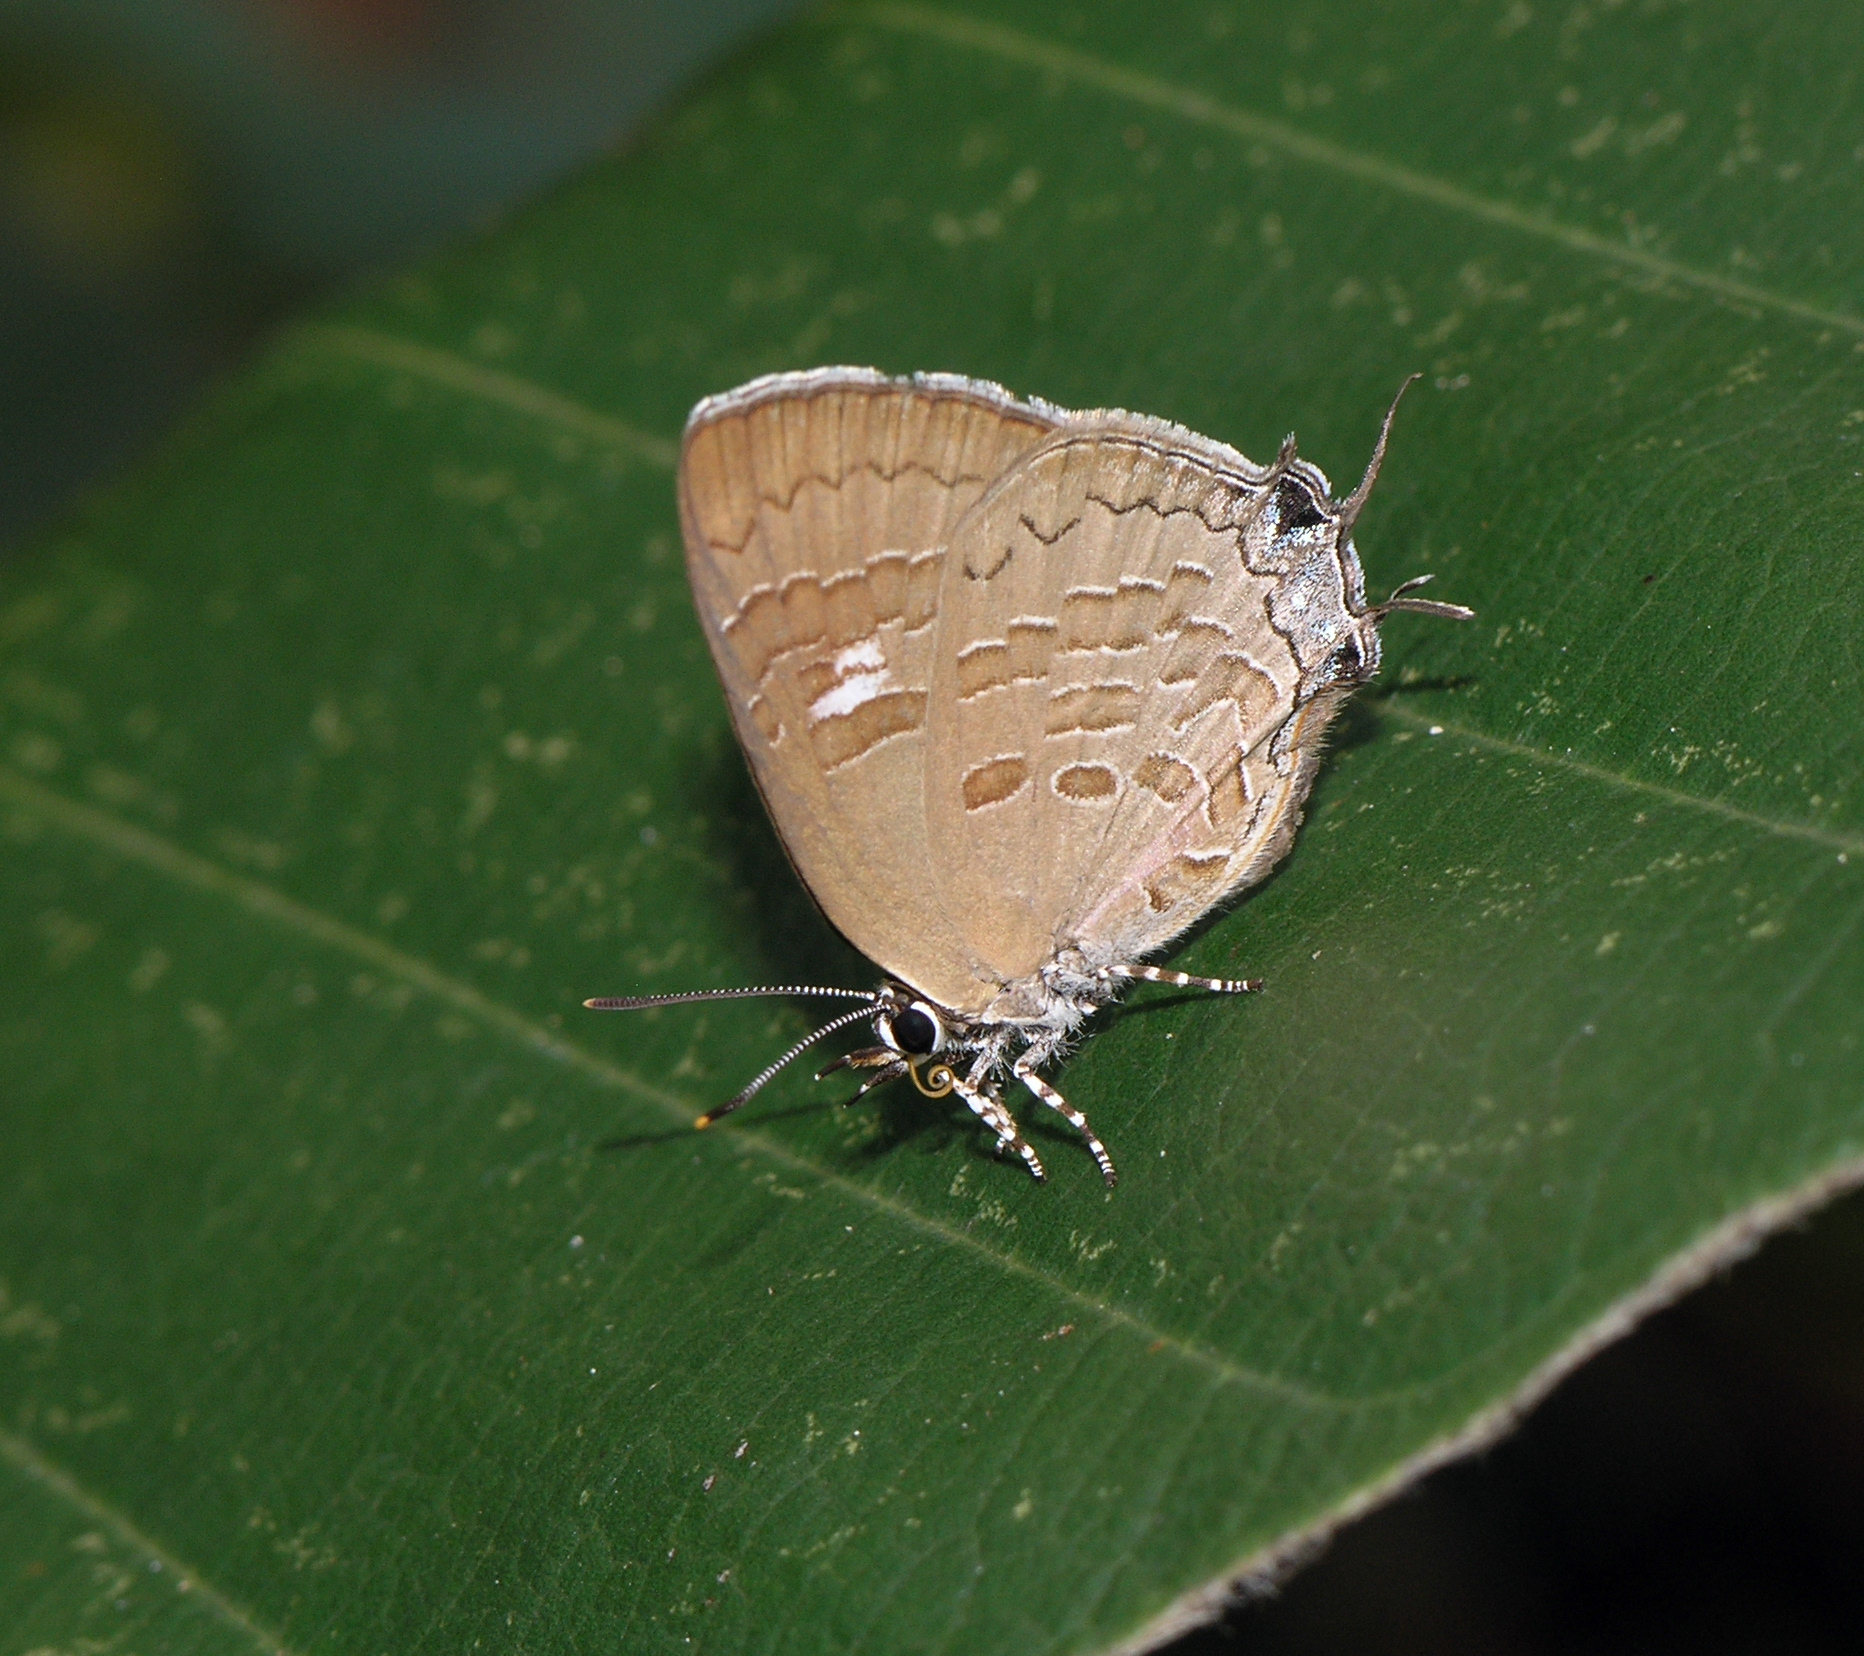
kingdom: Animalia
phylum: Arthropoda
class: Insecta
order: Lepidoptera
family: Lycaenidae
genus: Ahmetia
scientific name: Ahmetia
